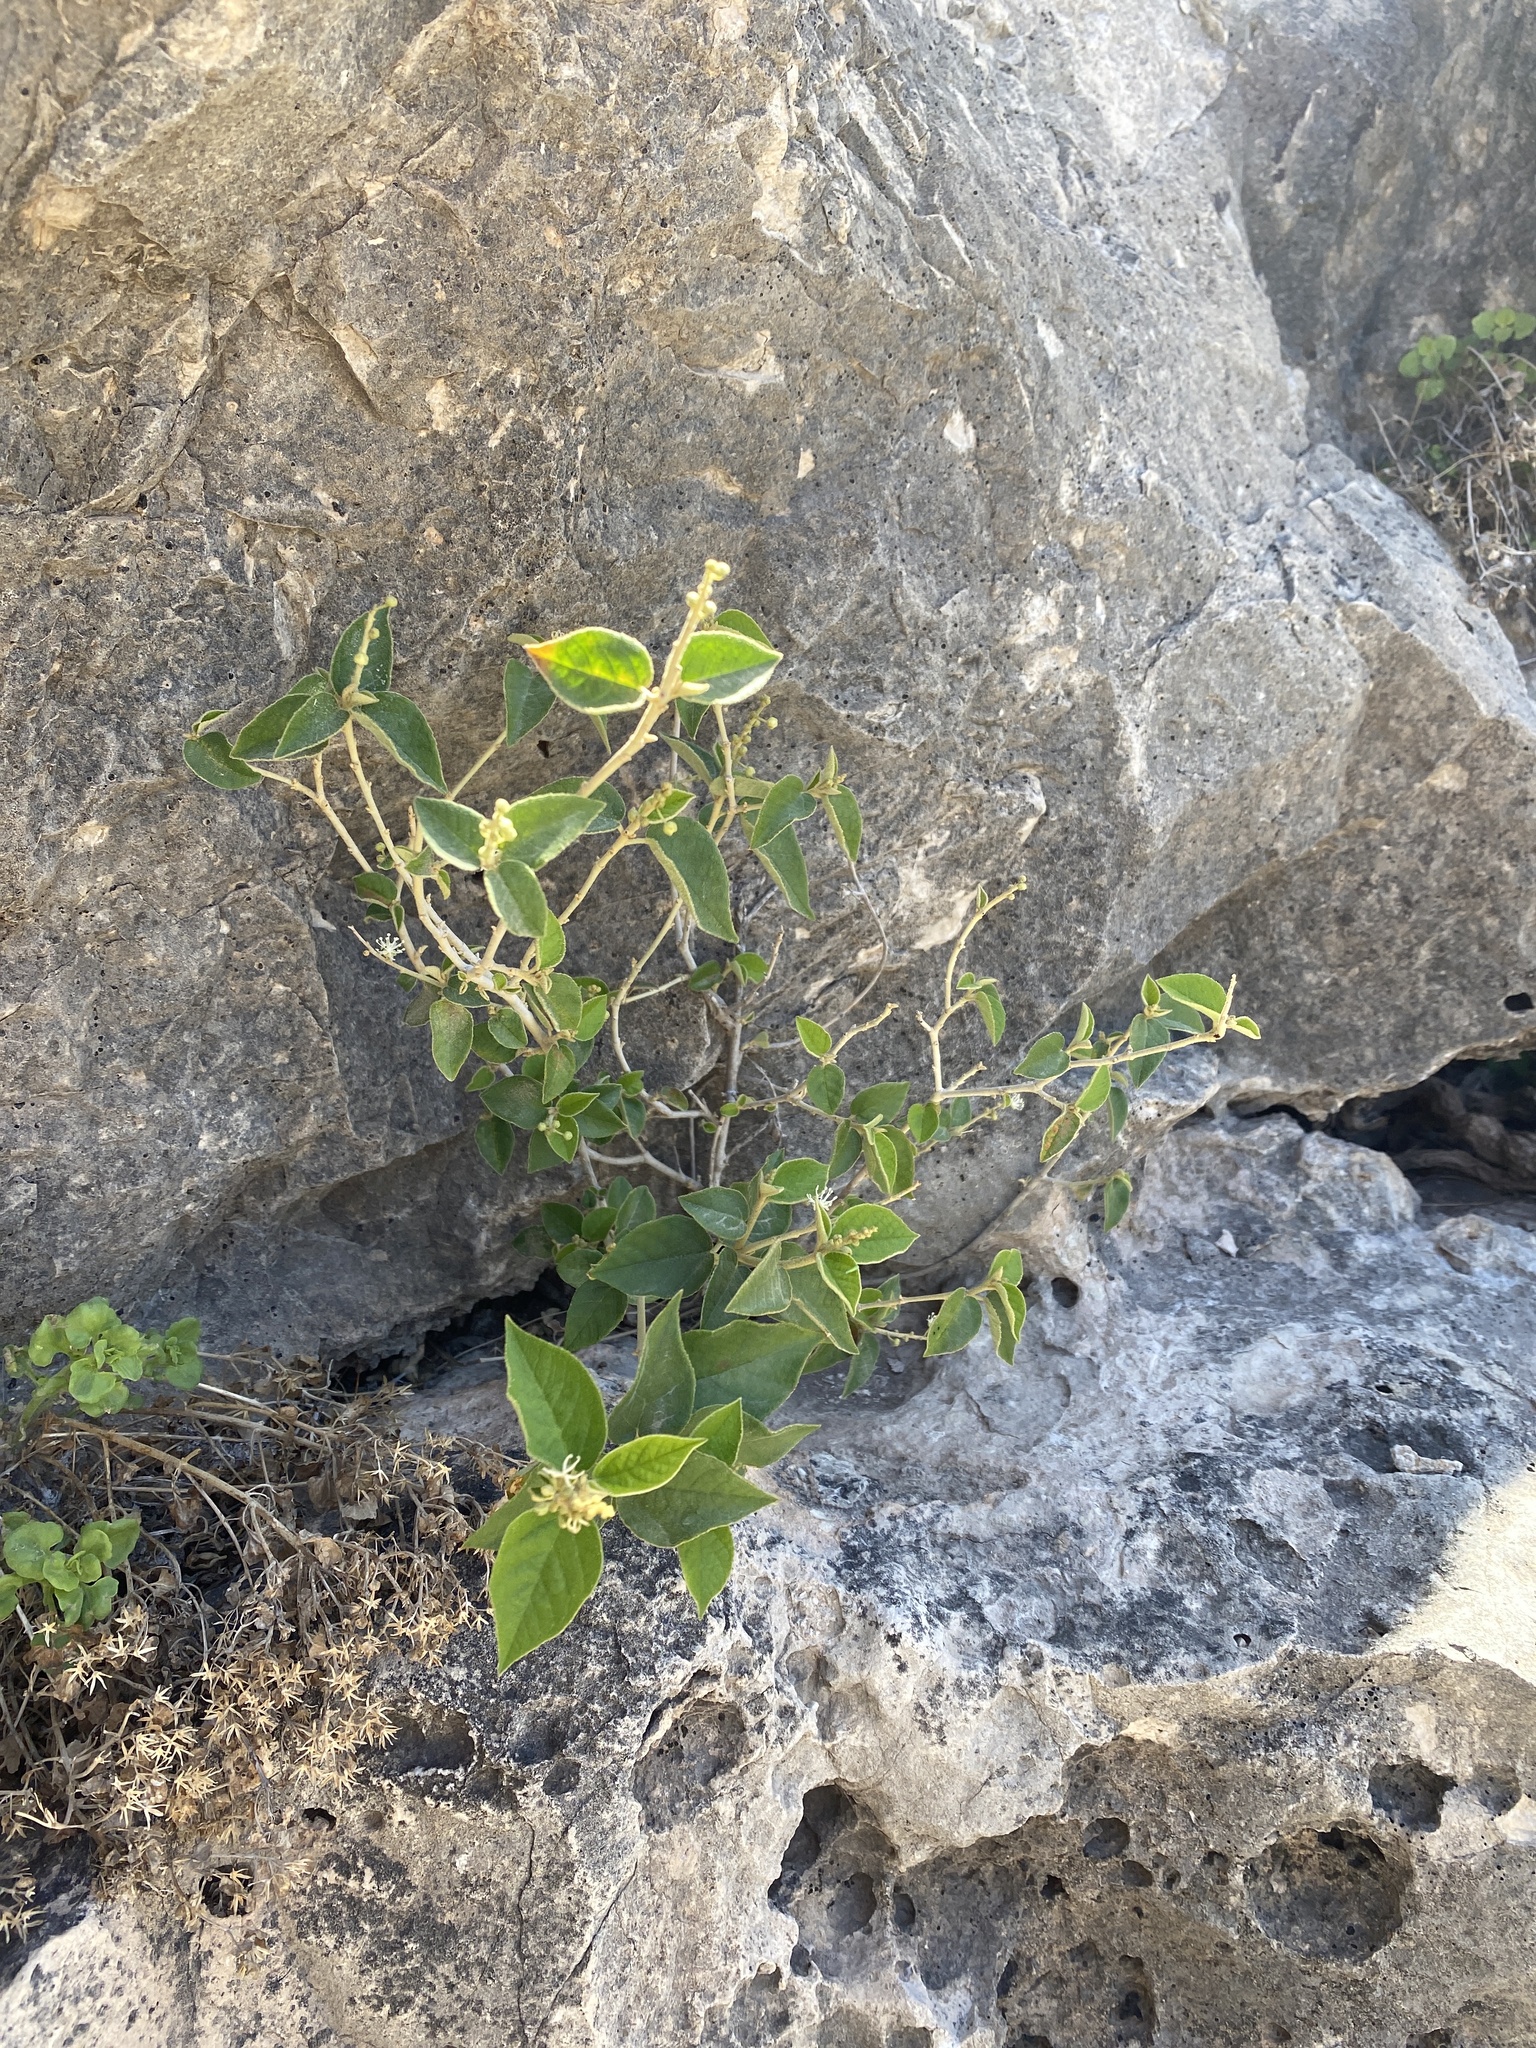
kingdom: Plantae
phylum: Tracheophyta
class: Magnoliopsida
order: Malpighiales
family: Euphorbiaceae
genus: Croton
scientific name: Croton fruticulosus
